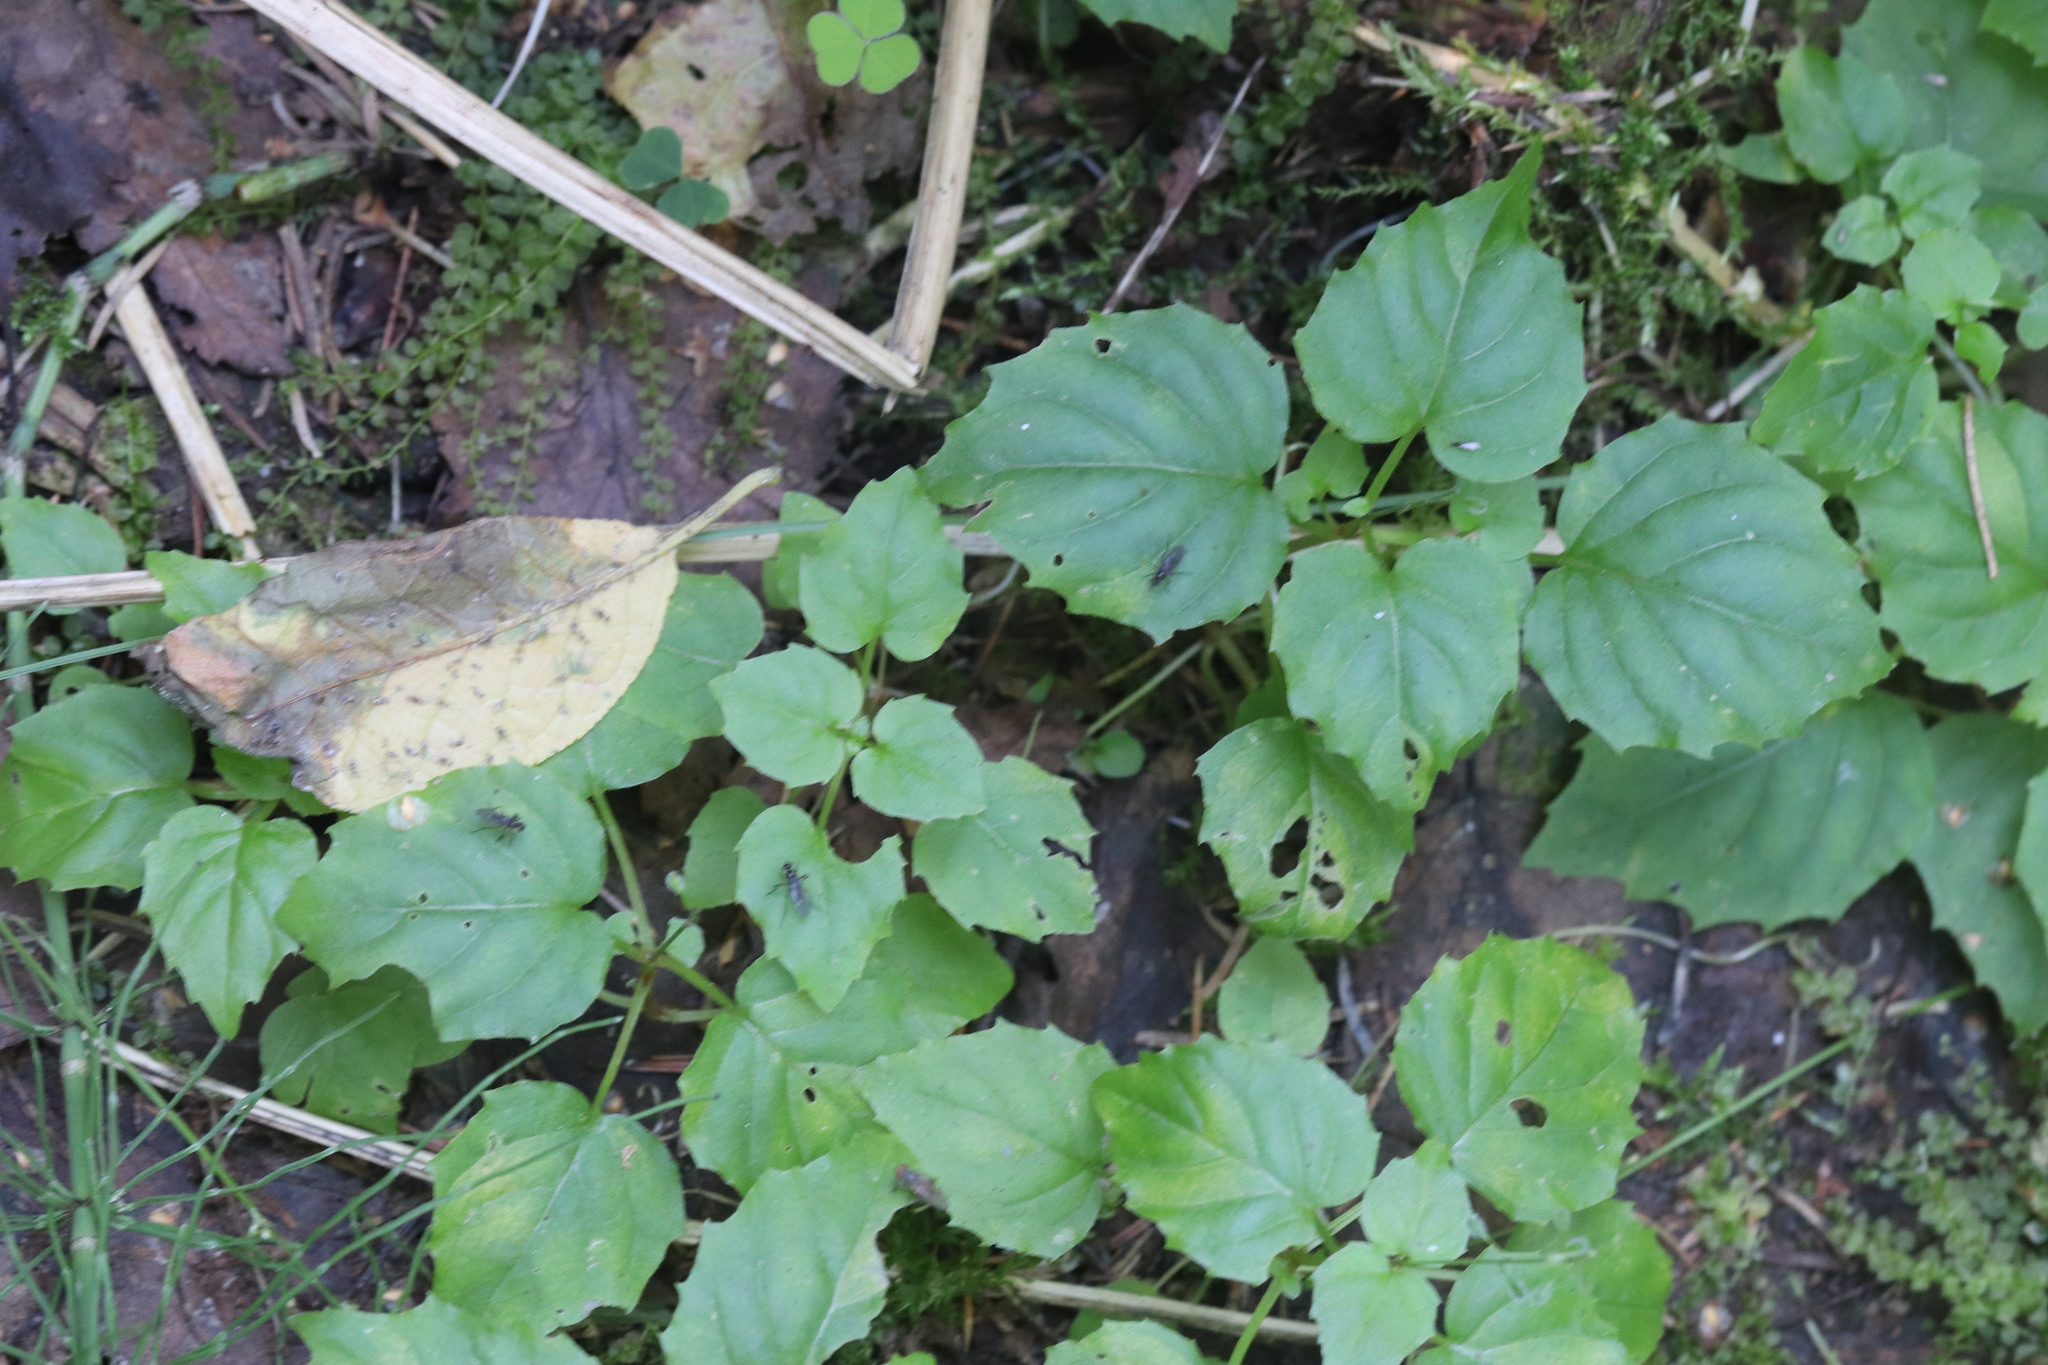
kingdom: Plantae
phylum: Tracheophyta
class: Magnoliopsida
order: Myrtales
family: Onagraceae
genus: Circaea
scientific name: Circaea alpina
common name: Alpine enchanter's-nightshade
